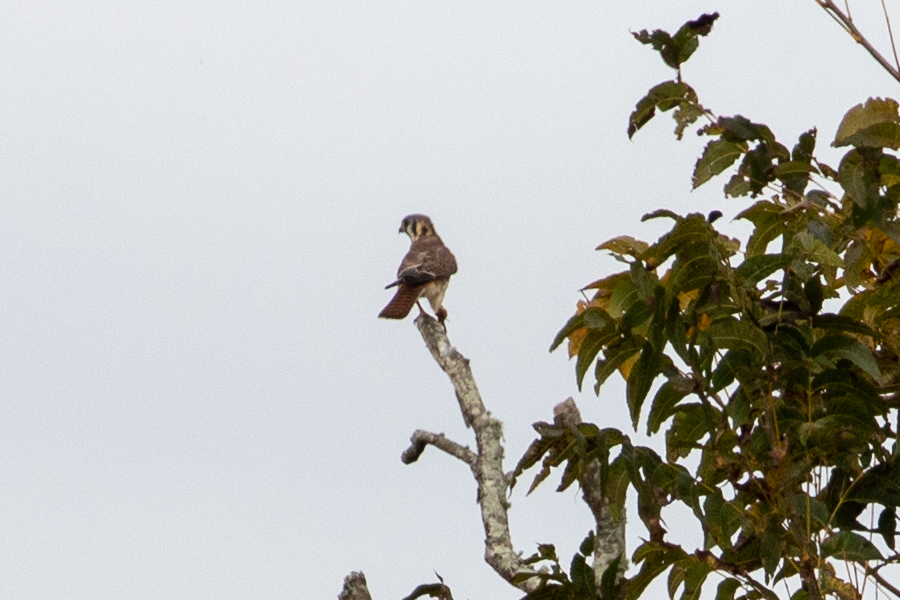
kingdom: Animalia
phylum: Chordata
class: Aves
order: Falconiformes
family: Falconidae
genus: Falco
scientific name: Falco sparverius
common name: American kestrel
